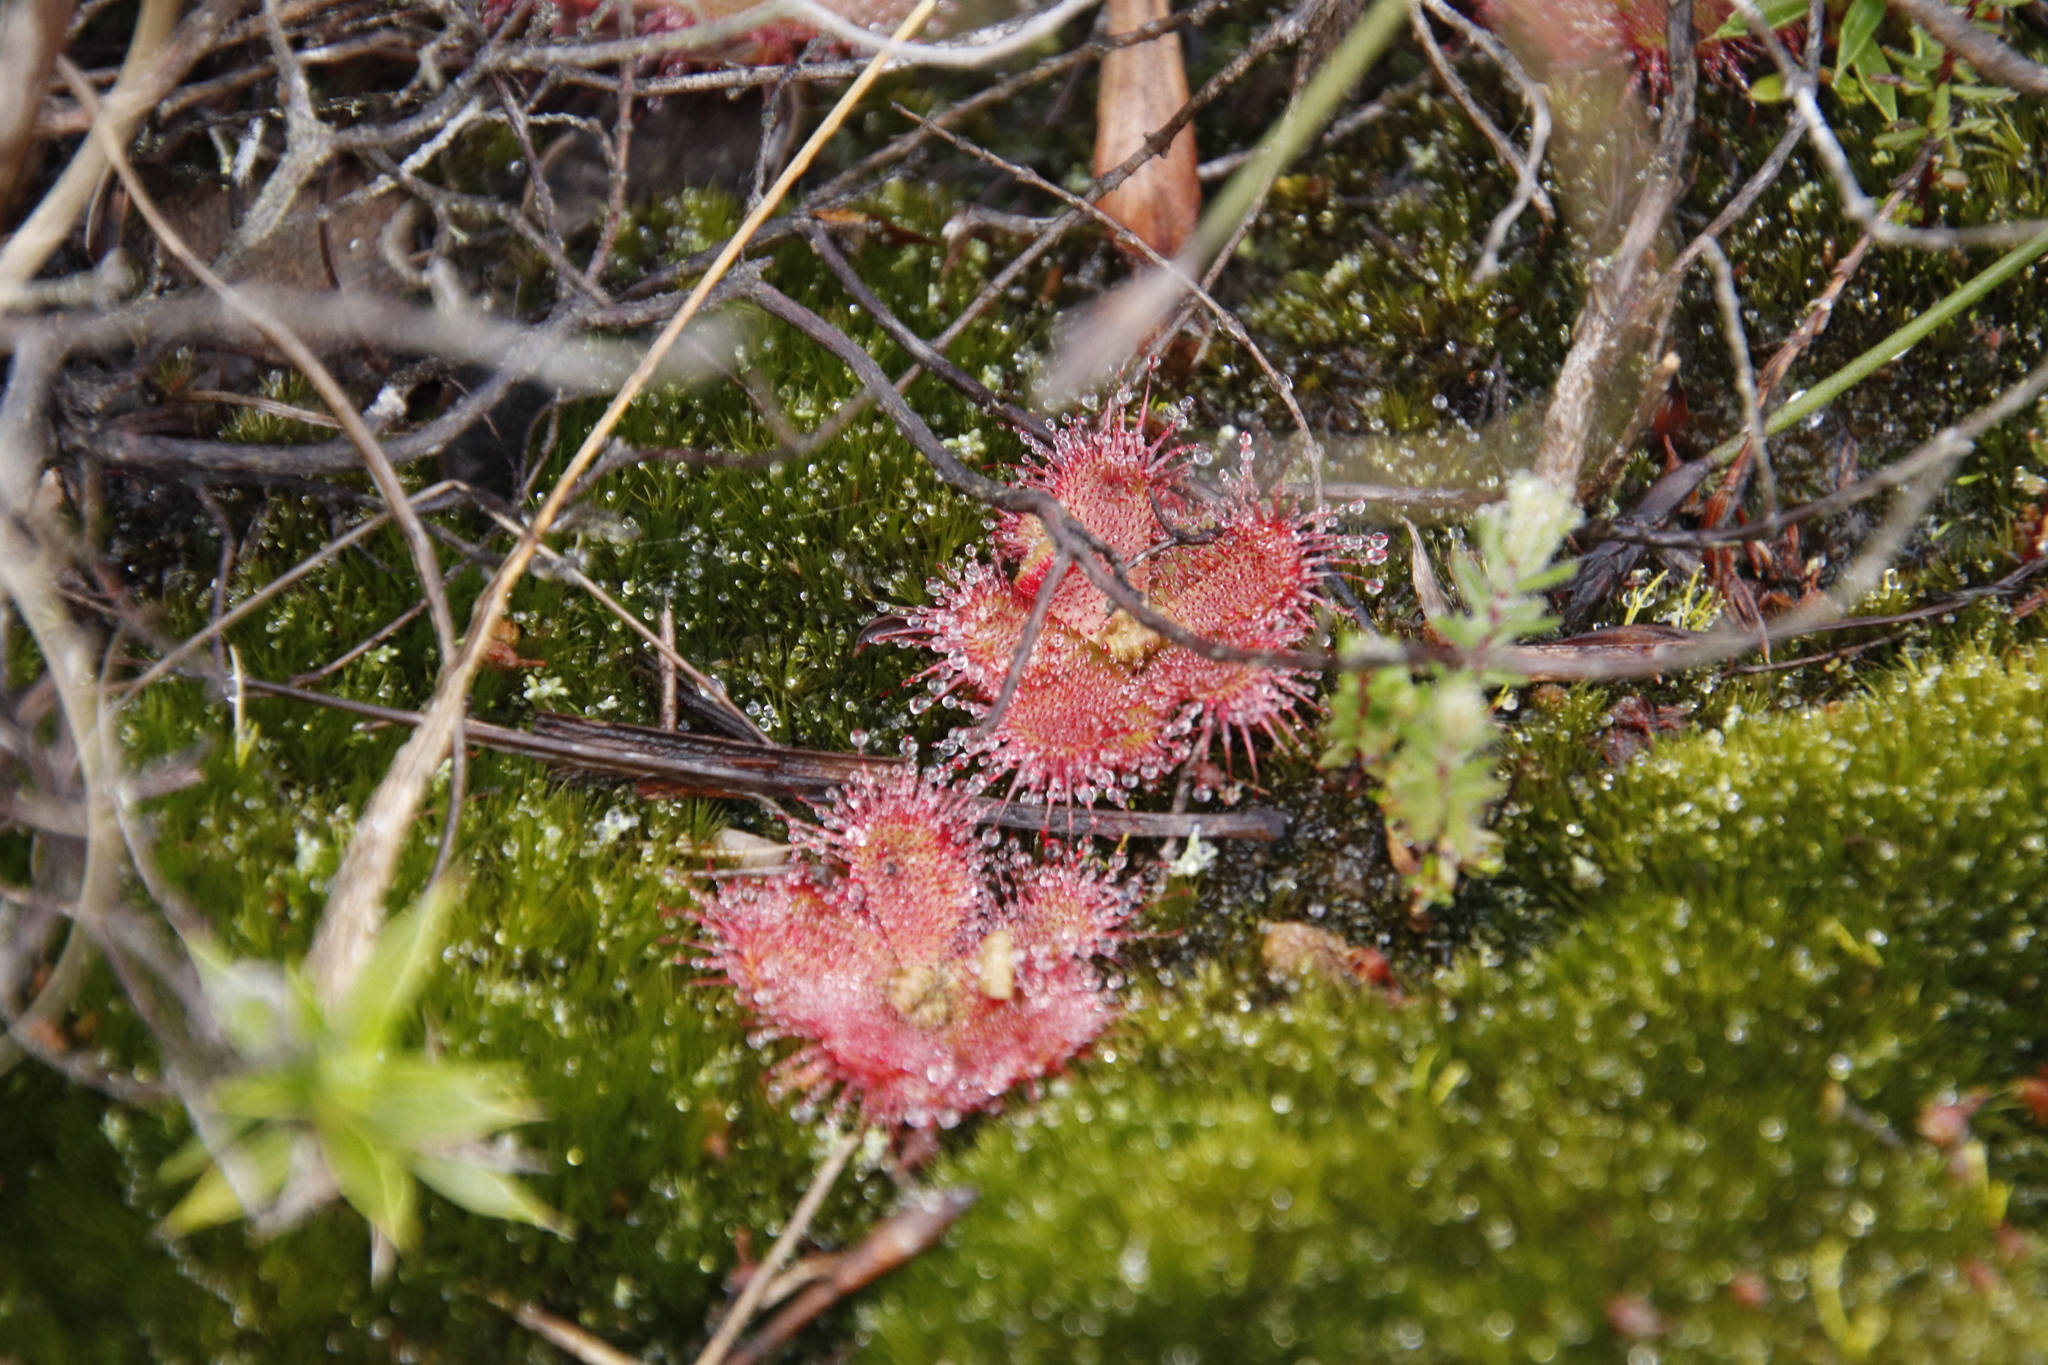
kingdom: Plantae
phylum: Tracheophyta
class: Magnoliopsida
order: Caryophyllales
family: Droseraceae
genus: Drosera
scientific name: Drosera trinervia
